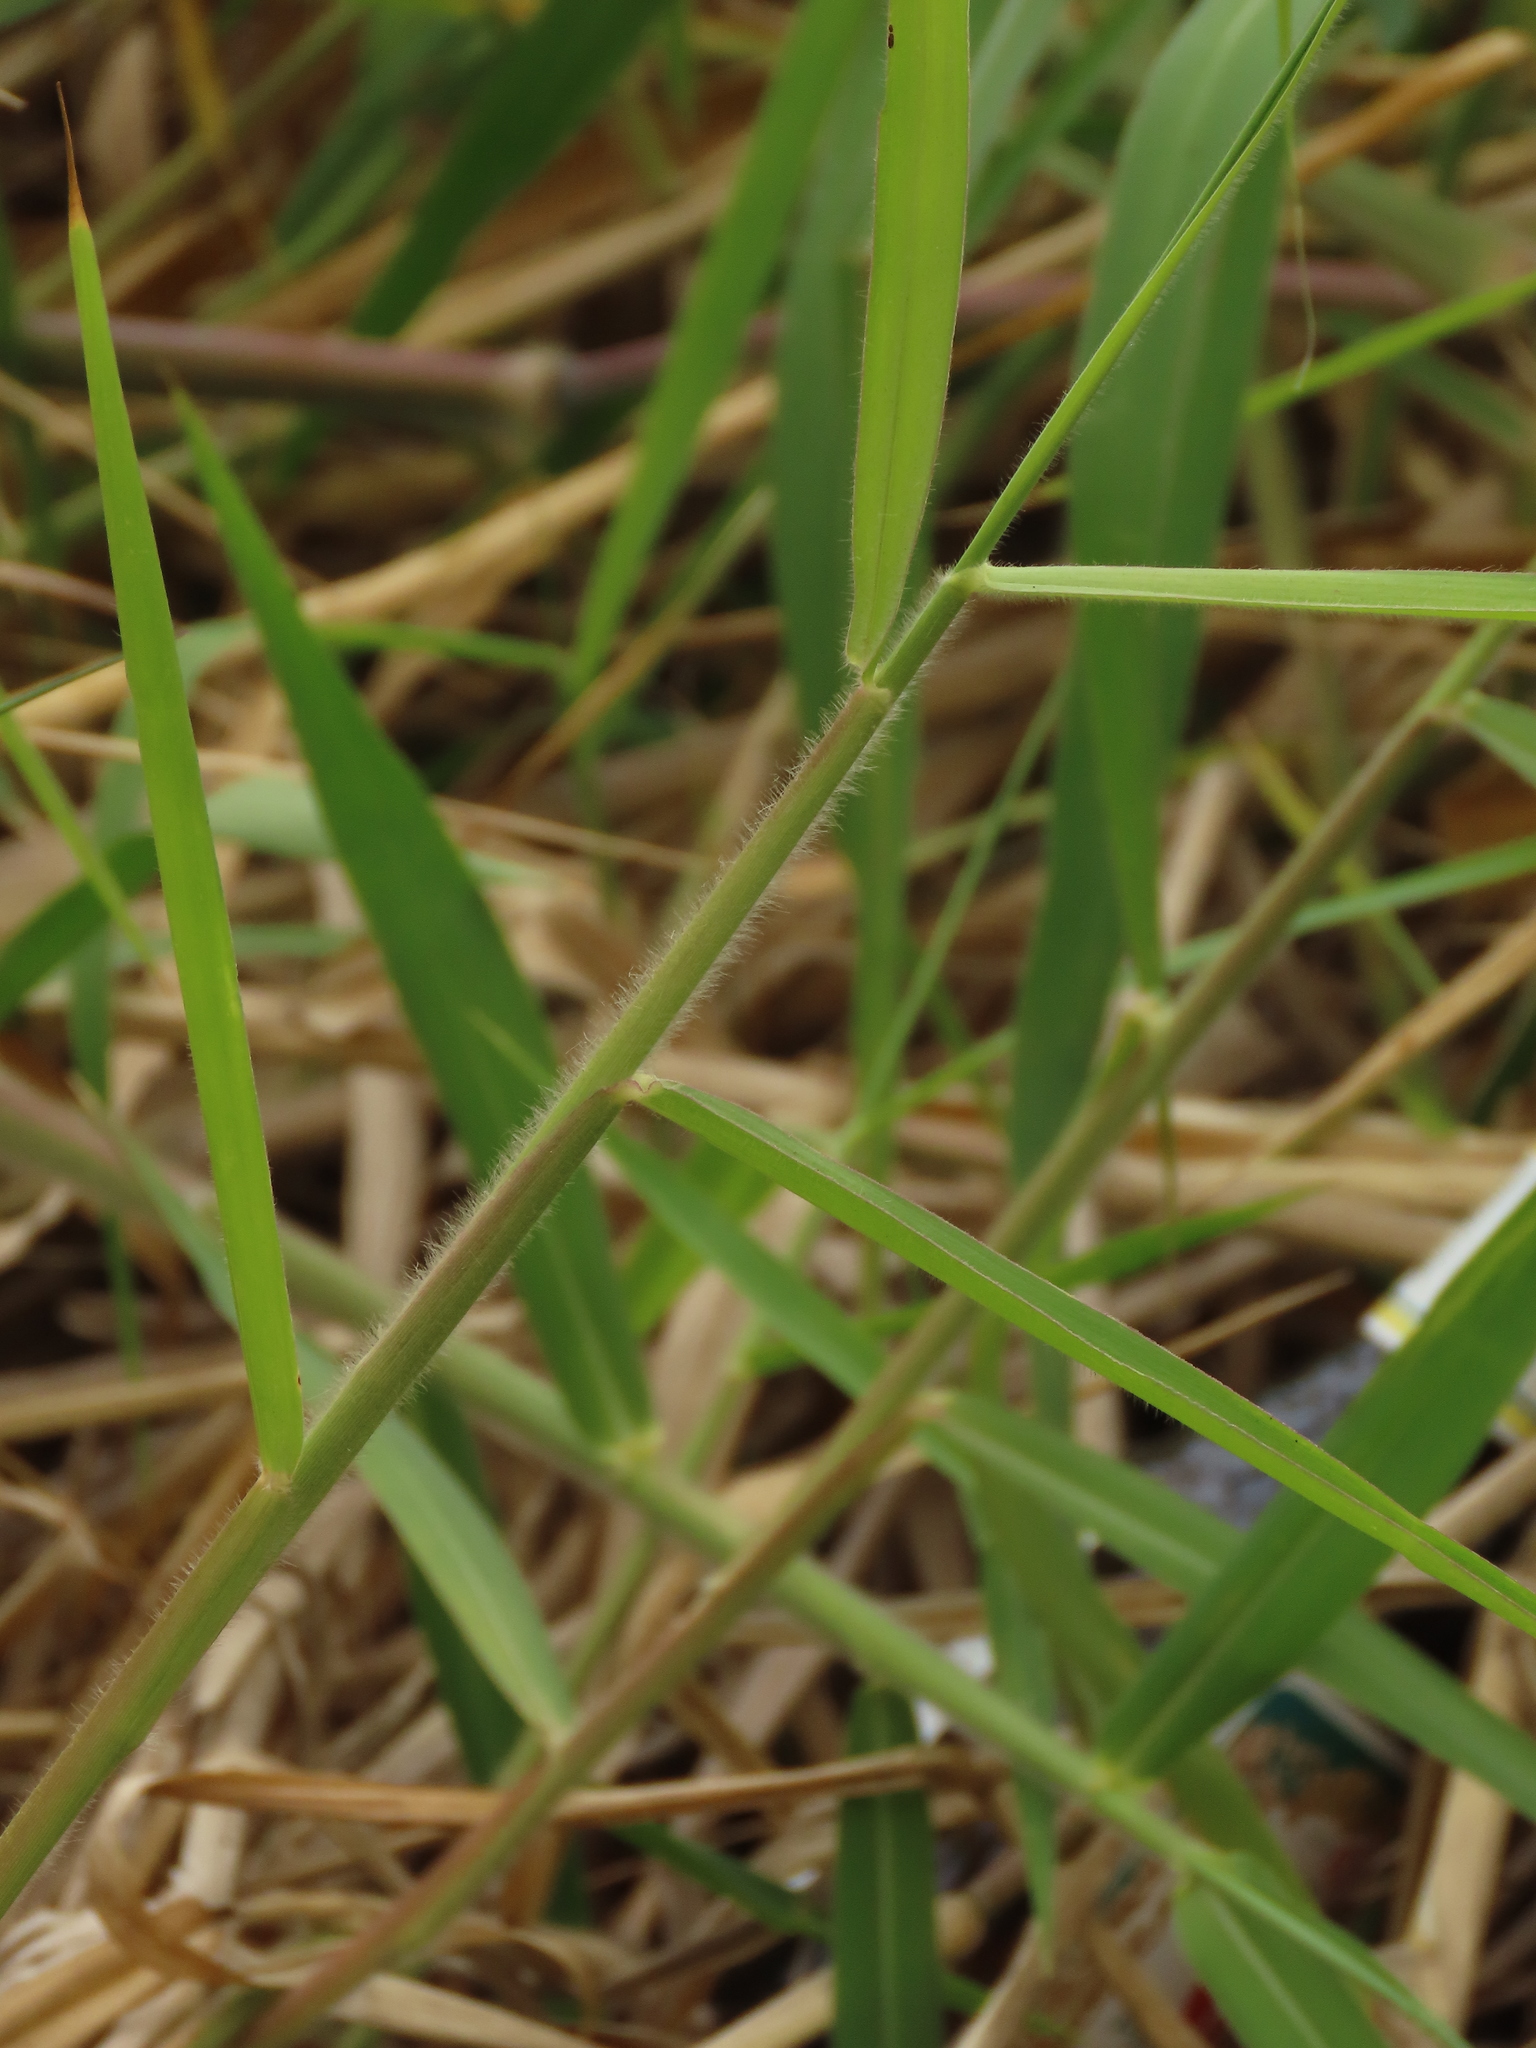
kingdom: Plantae
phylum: Tracheophyta
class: Liliopsida
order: Poales
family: Poaceae
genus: Urochloa
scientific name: Urochloa mutica
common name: Para grass
